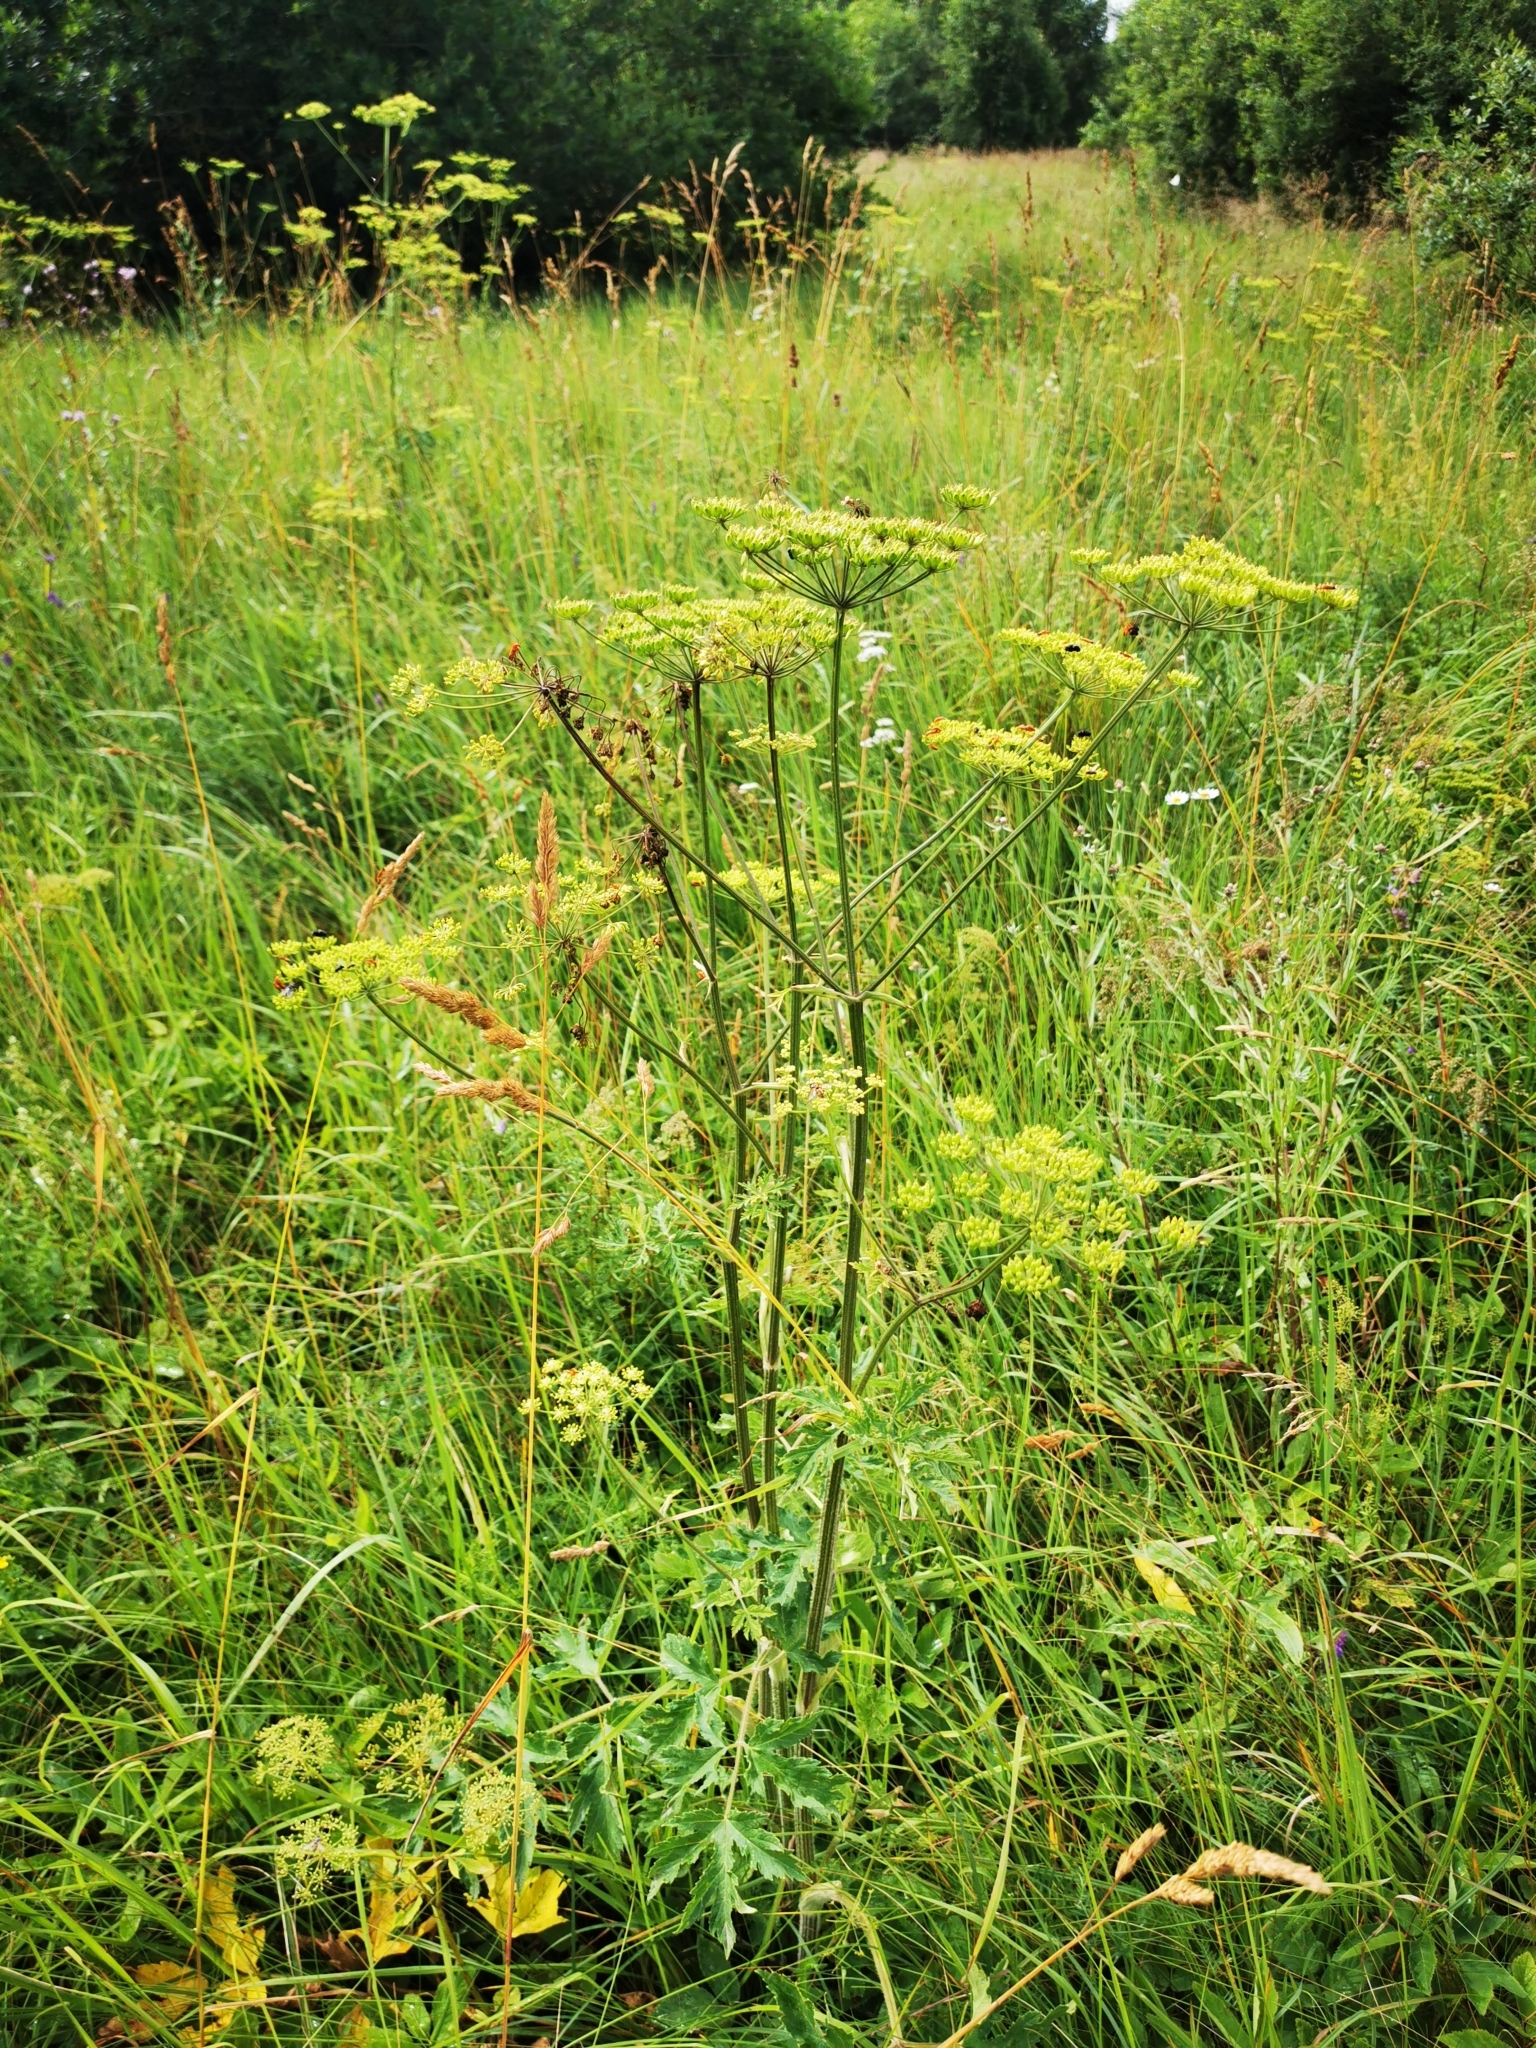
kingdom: Plantae
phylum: Tracheophyta
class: Magnoliopsida
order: Apiales
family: Apiaceae
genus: Heracleum
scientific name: Heracleum sphondylium
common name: Hogweed
